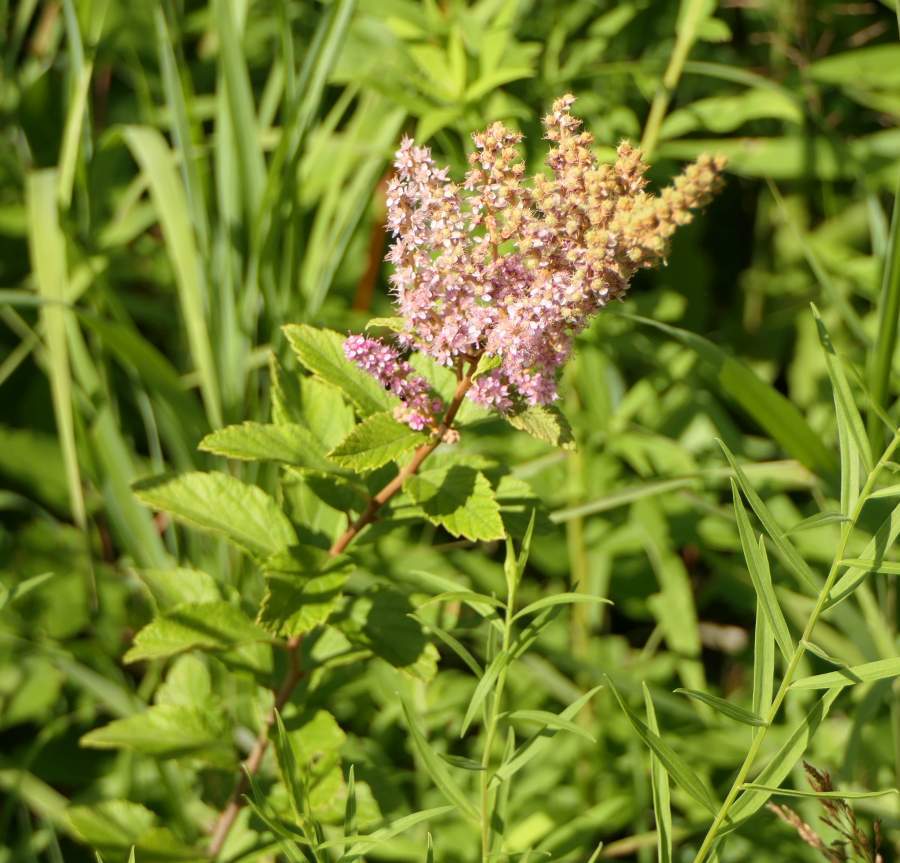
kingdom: Plantae
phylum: Tracheophyta
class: Magnoliopsida
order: Rosales
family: Rosaceae
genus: Spiraea
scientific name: Spiraea tomentosa
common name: Hardhack
